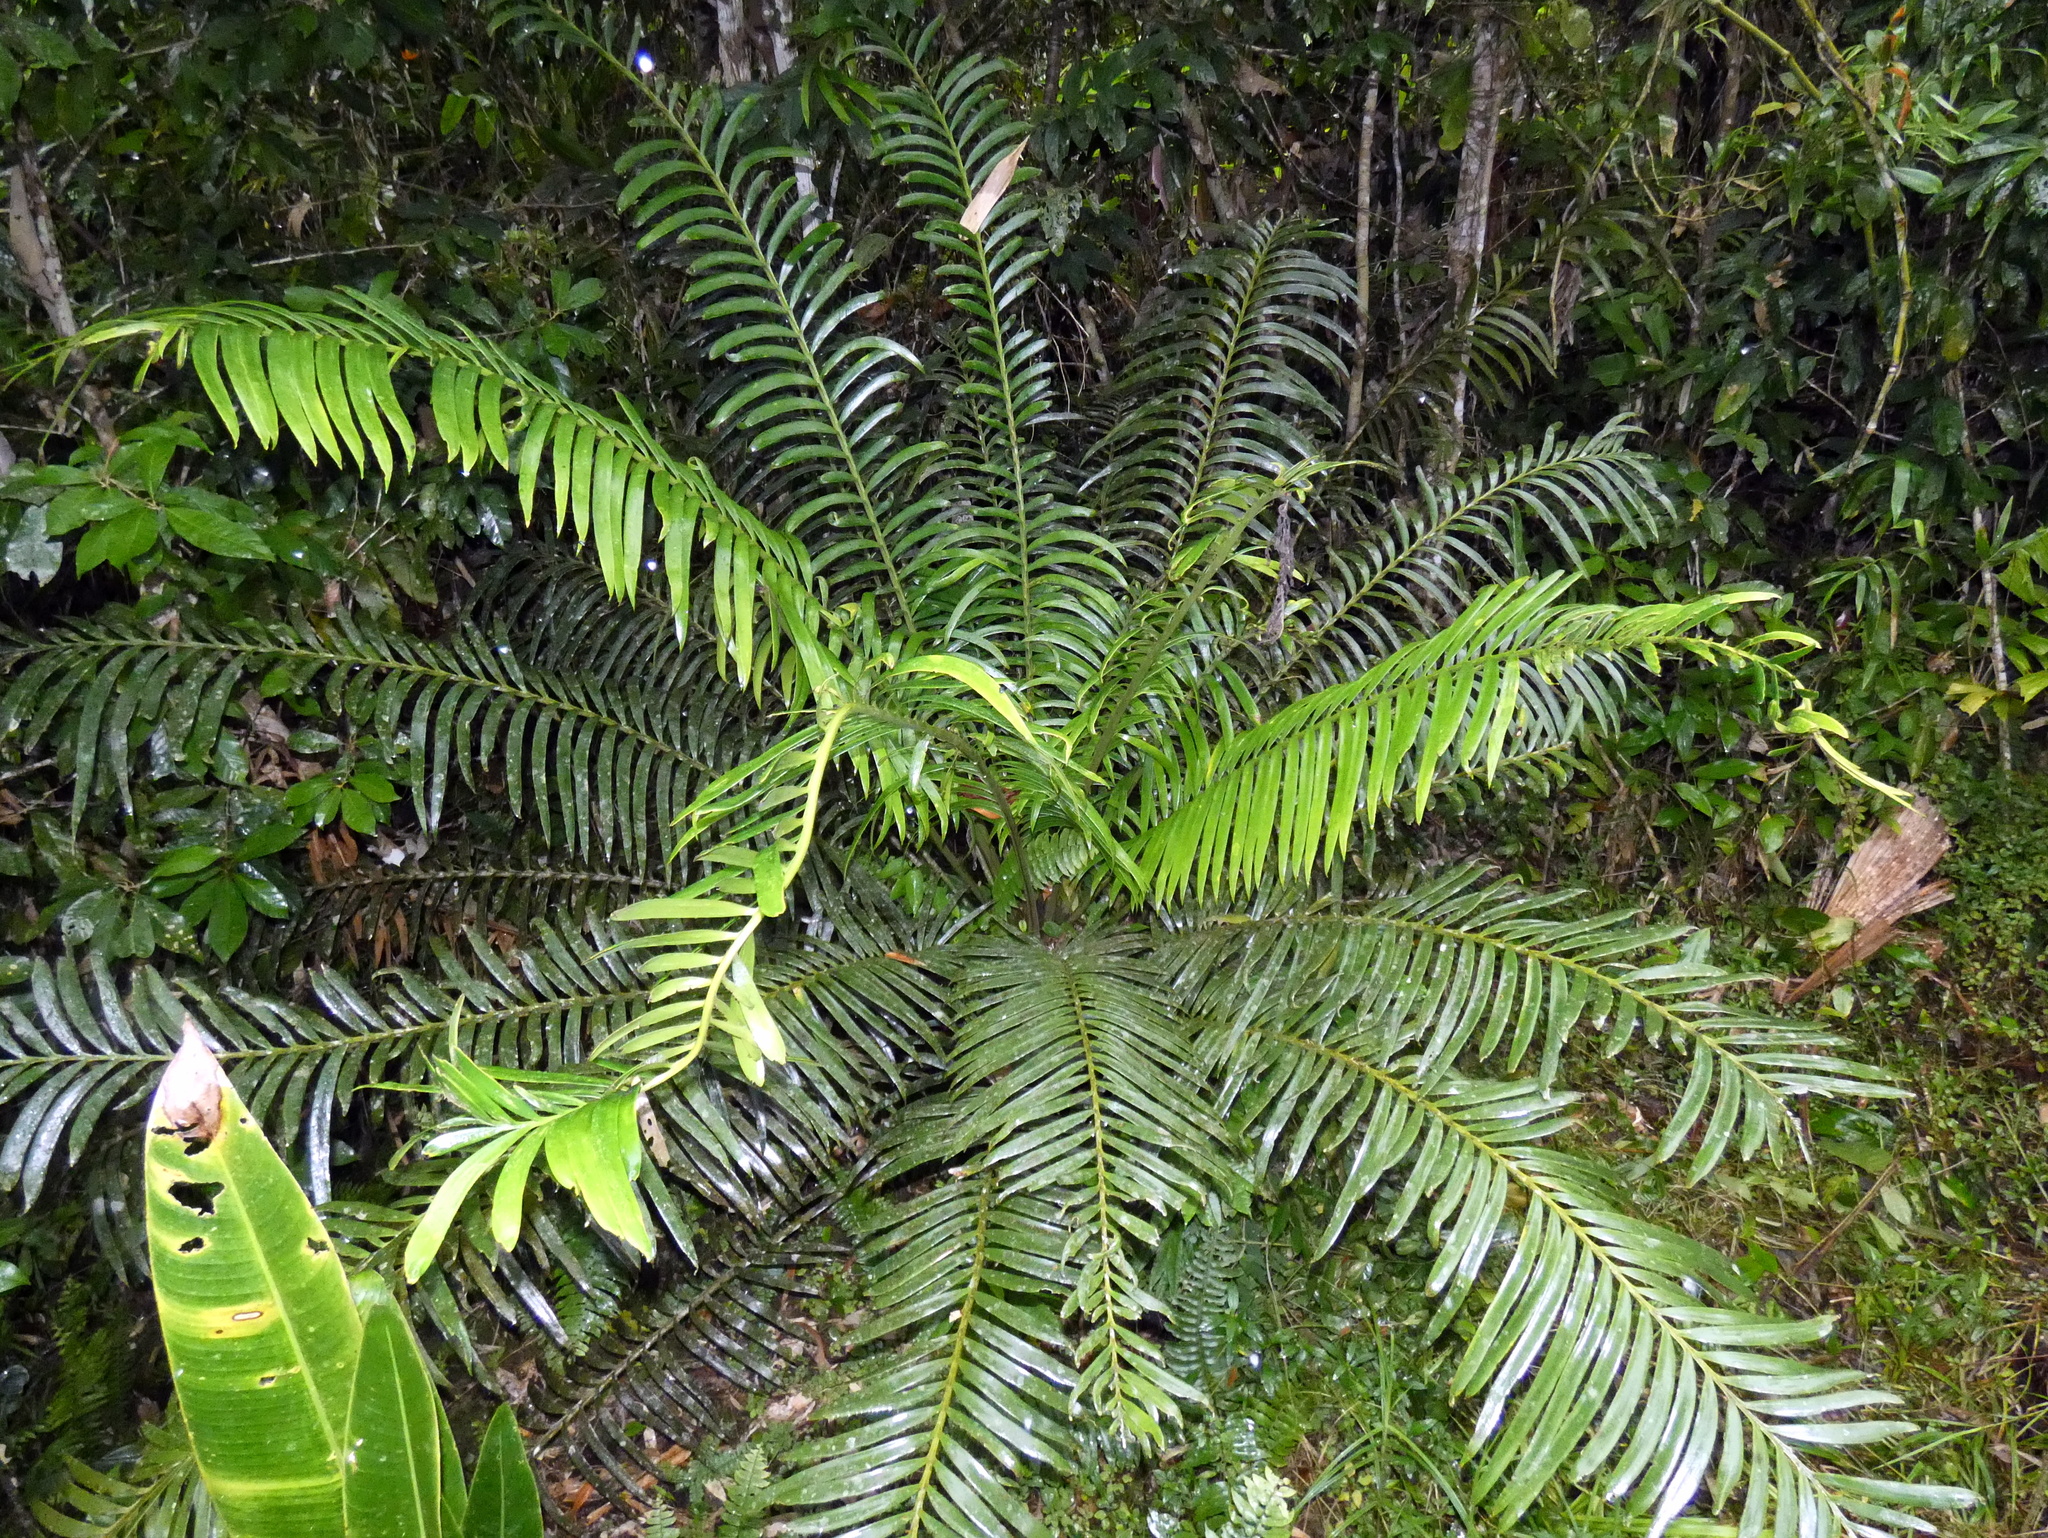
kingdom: Plantae
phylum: Tracheophyta
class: Cycadopsida
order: Cycadales
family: Zamiaceae
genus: Lepidozamia
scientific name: Lepidozamia hopei
